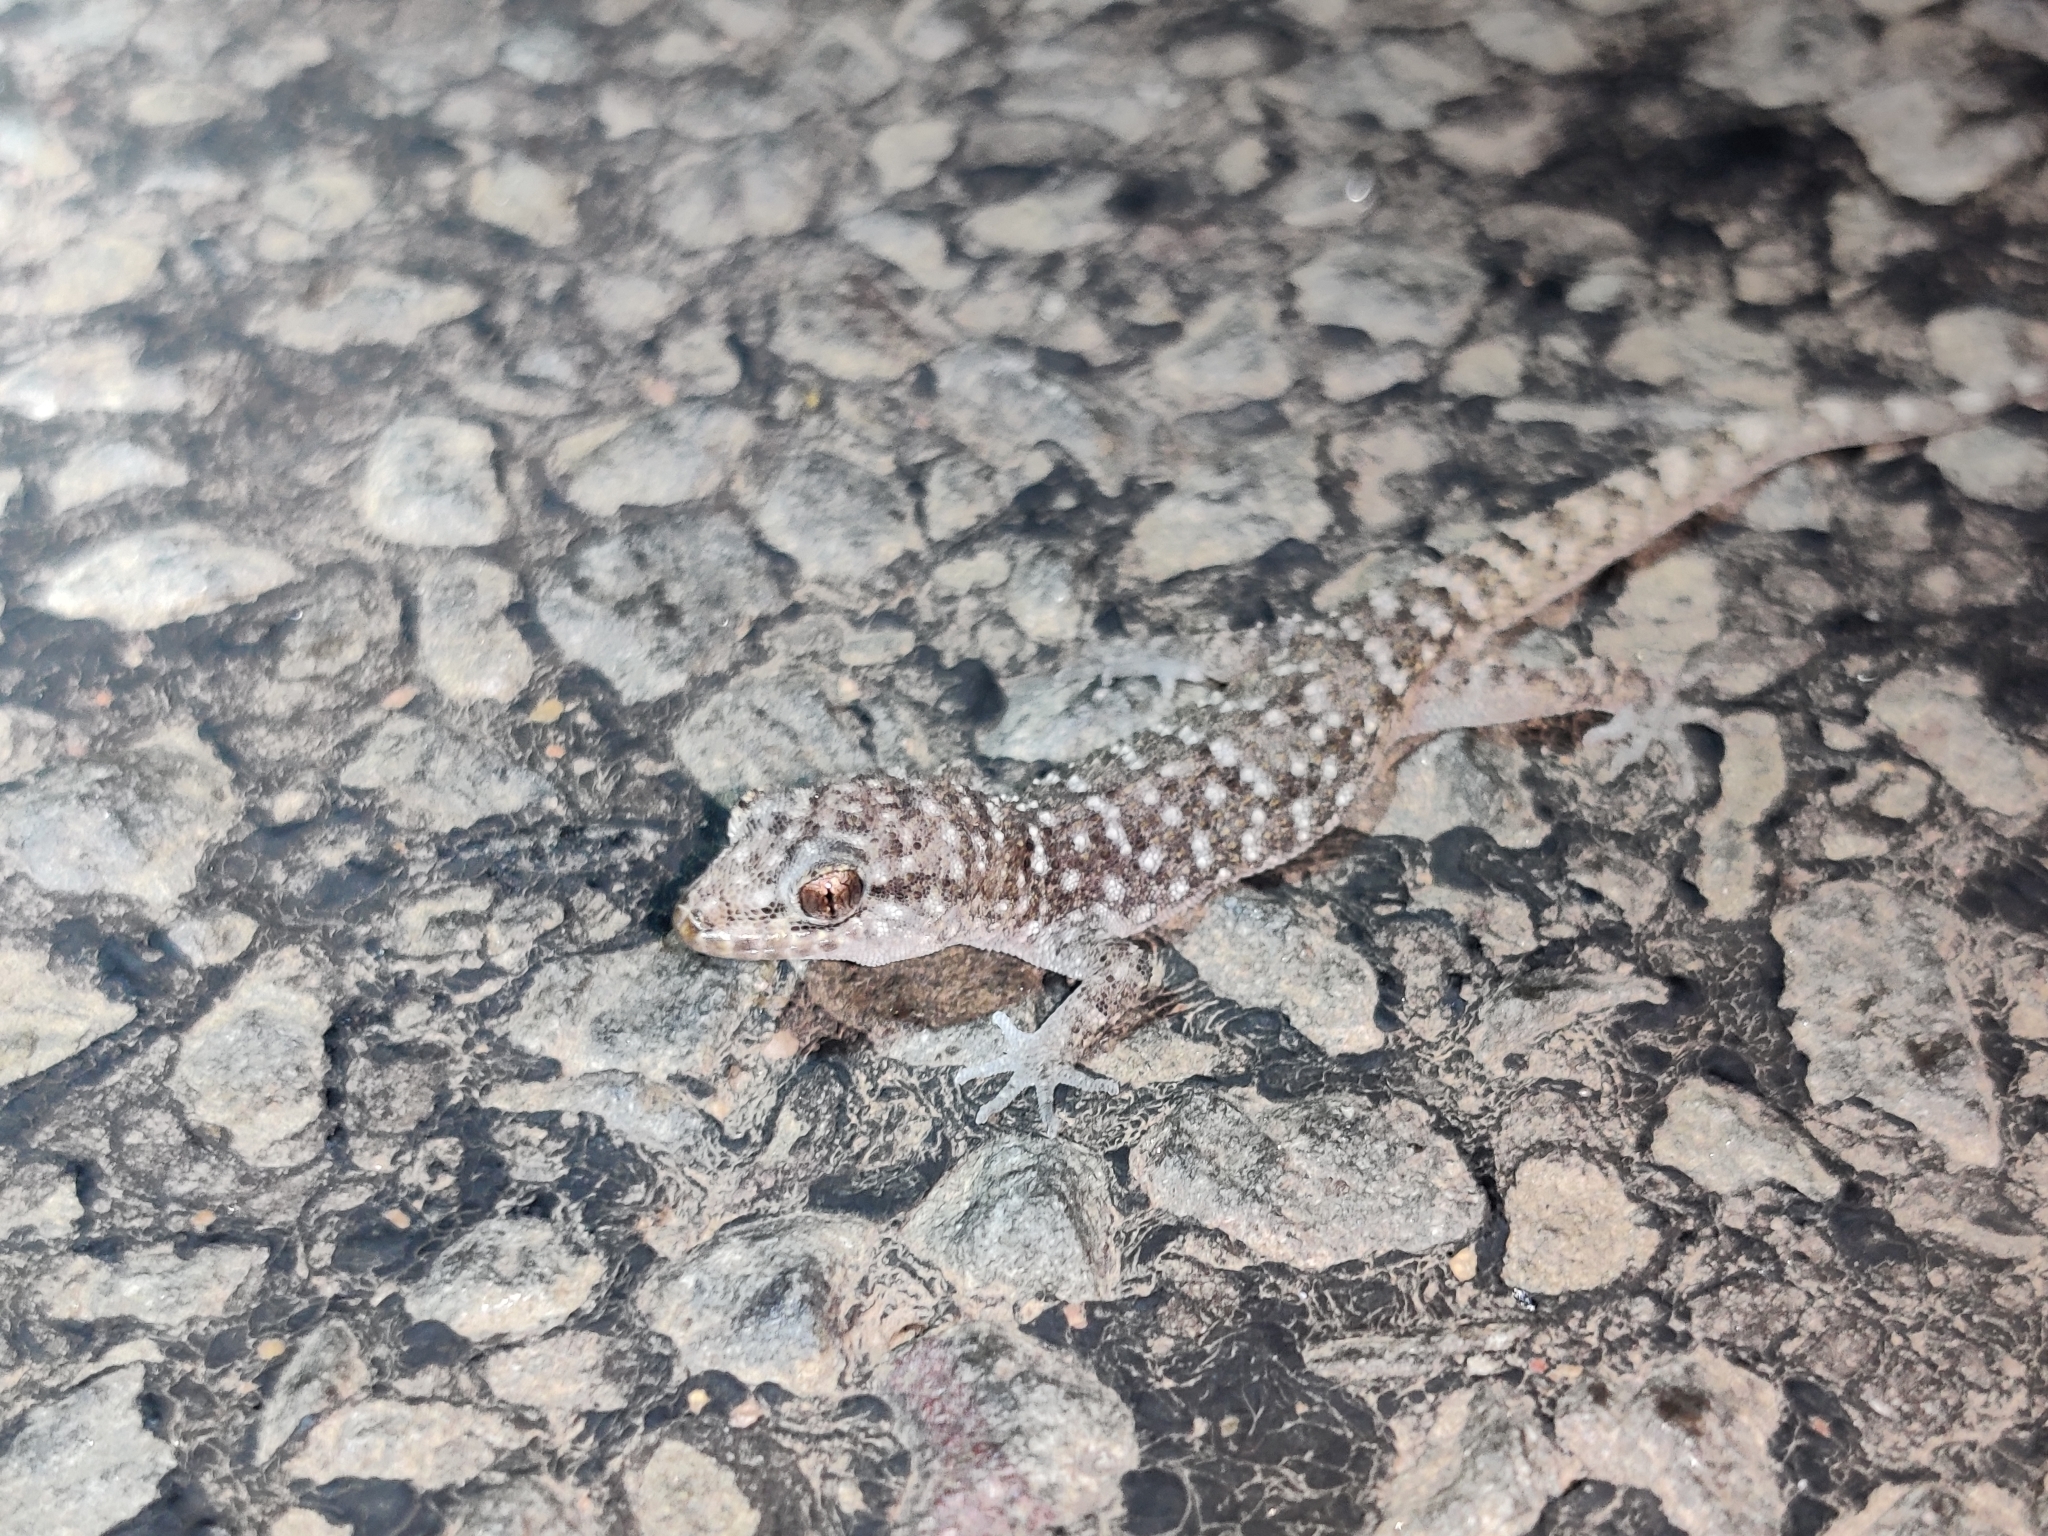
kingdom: Animalia
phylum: Chordata
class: Squamata
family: Gekkonidae
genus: Heteronotia
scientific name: Heteronotia binoei
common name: Bynoe's gecko
